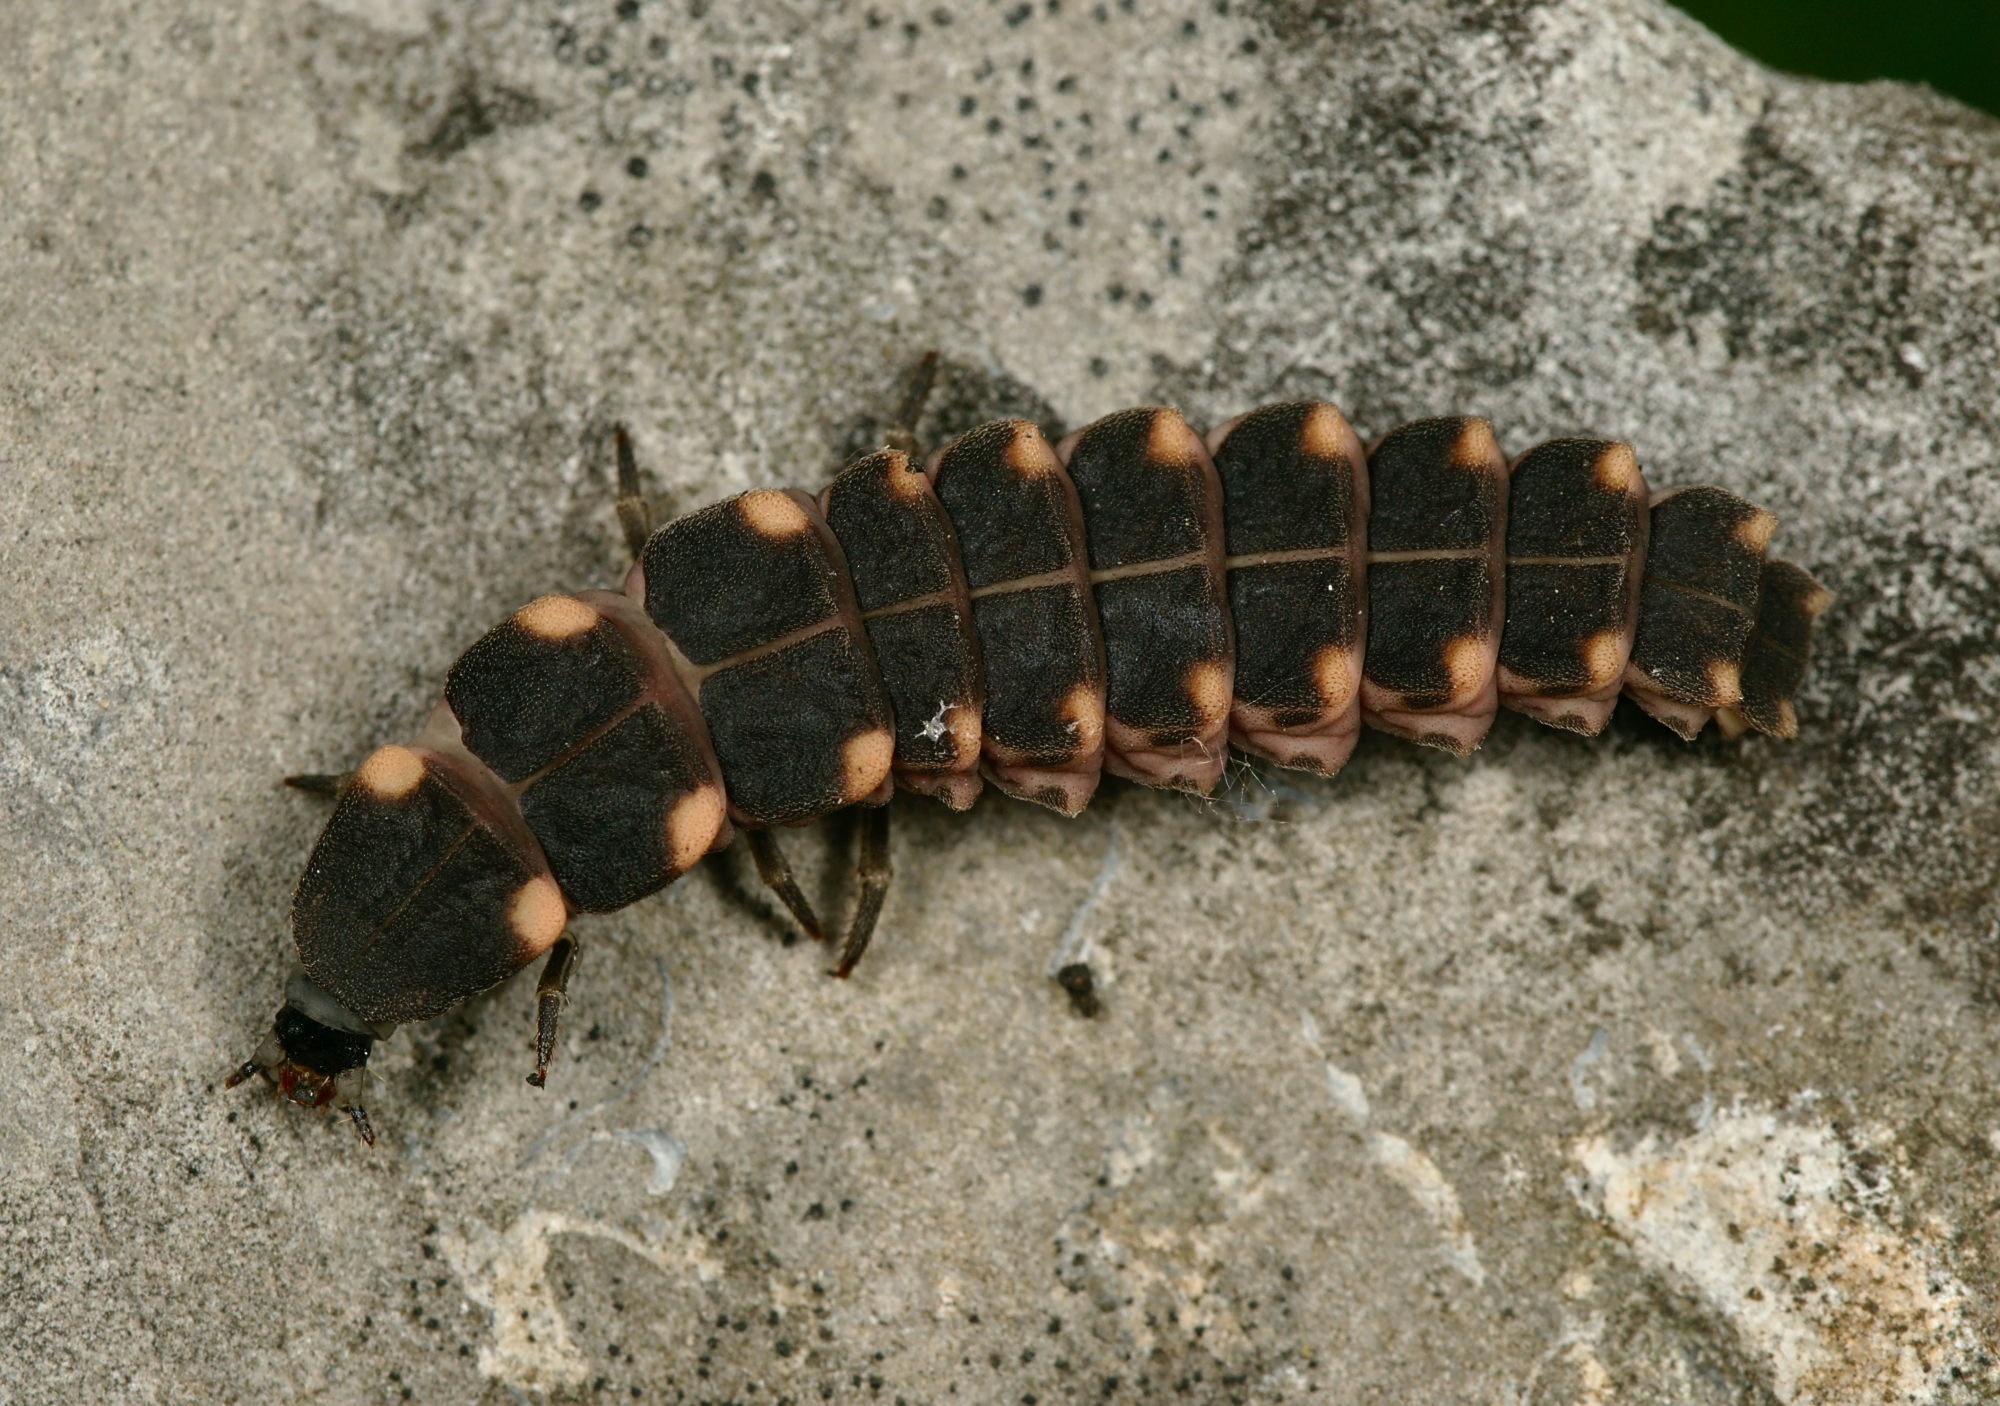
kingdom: Animalia
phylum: Arthropoda
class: Insecta
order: Coleoptera
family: Lampyridae
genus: Lampyris
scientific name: Lampyris noctiluca
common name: Glow-worm
